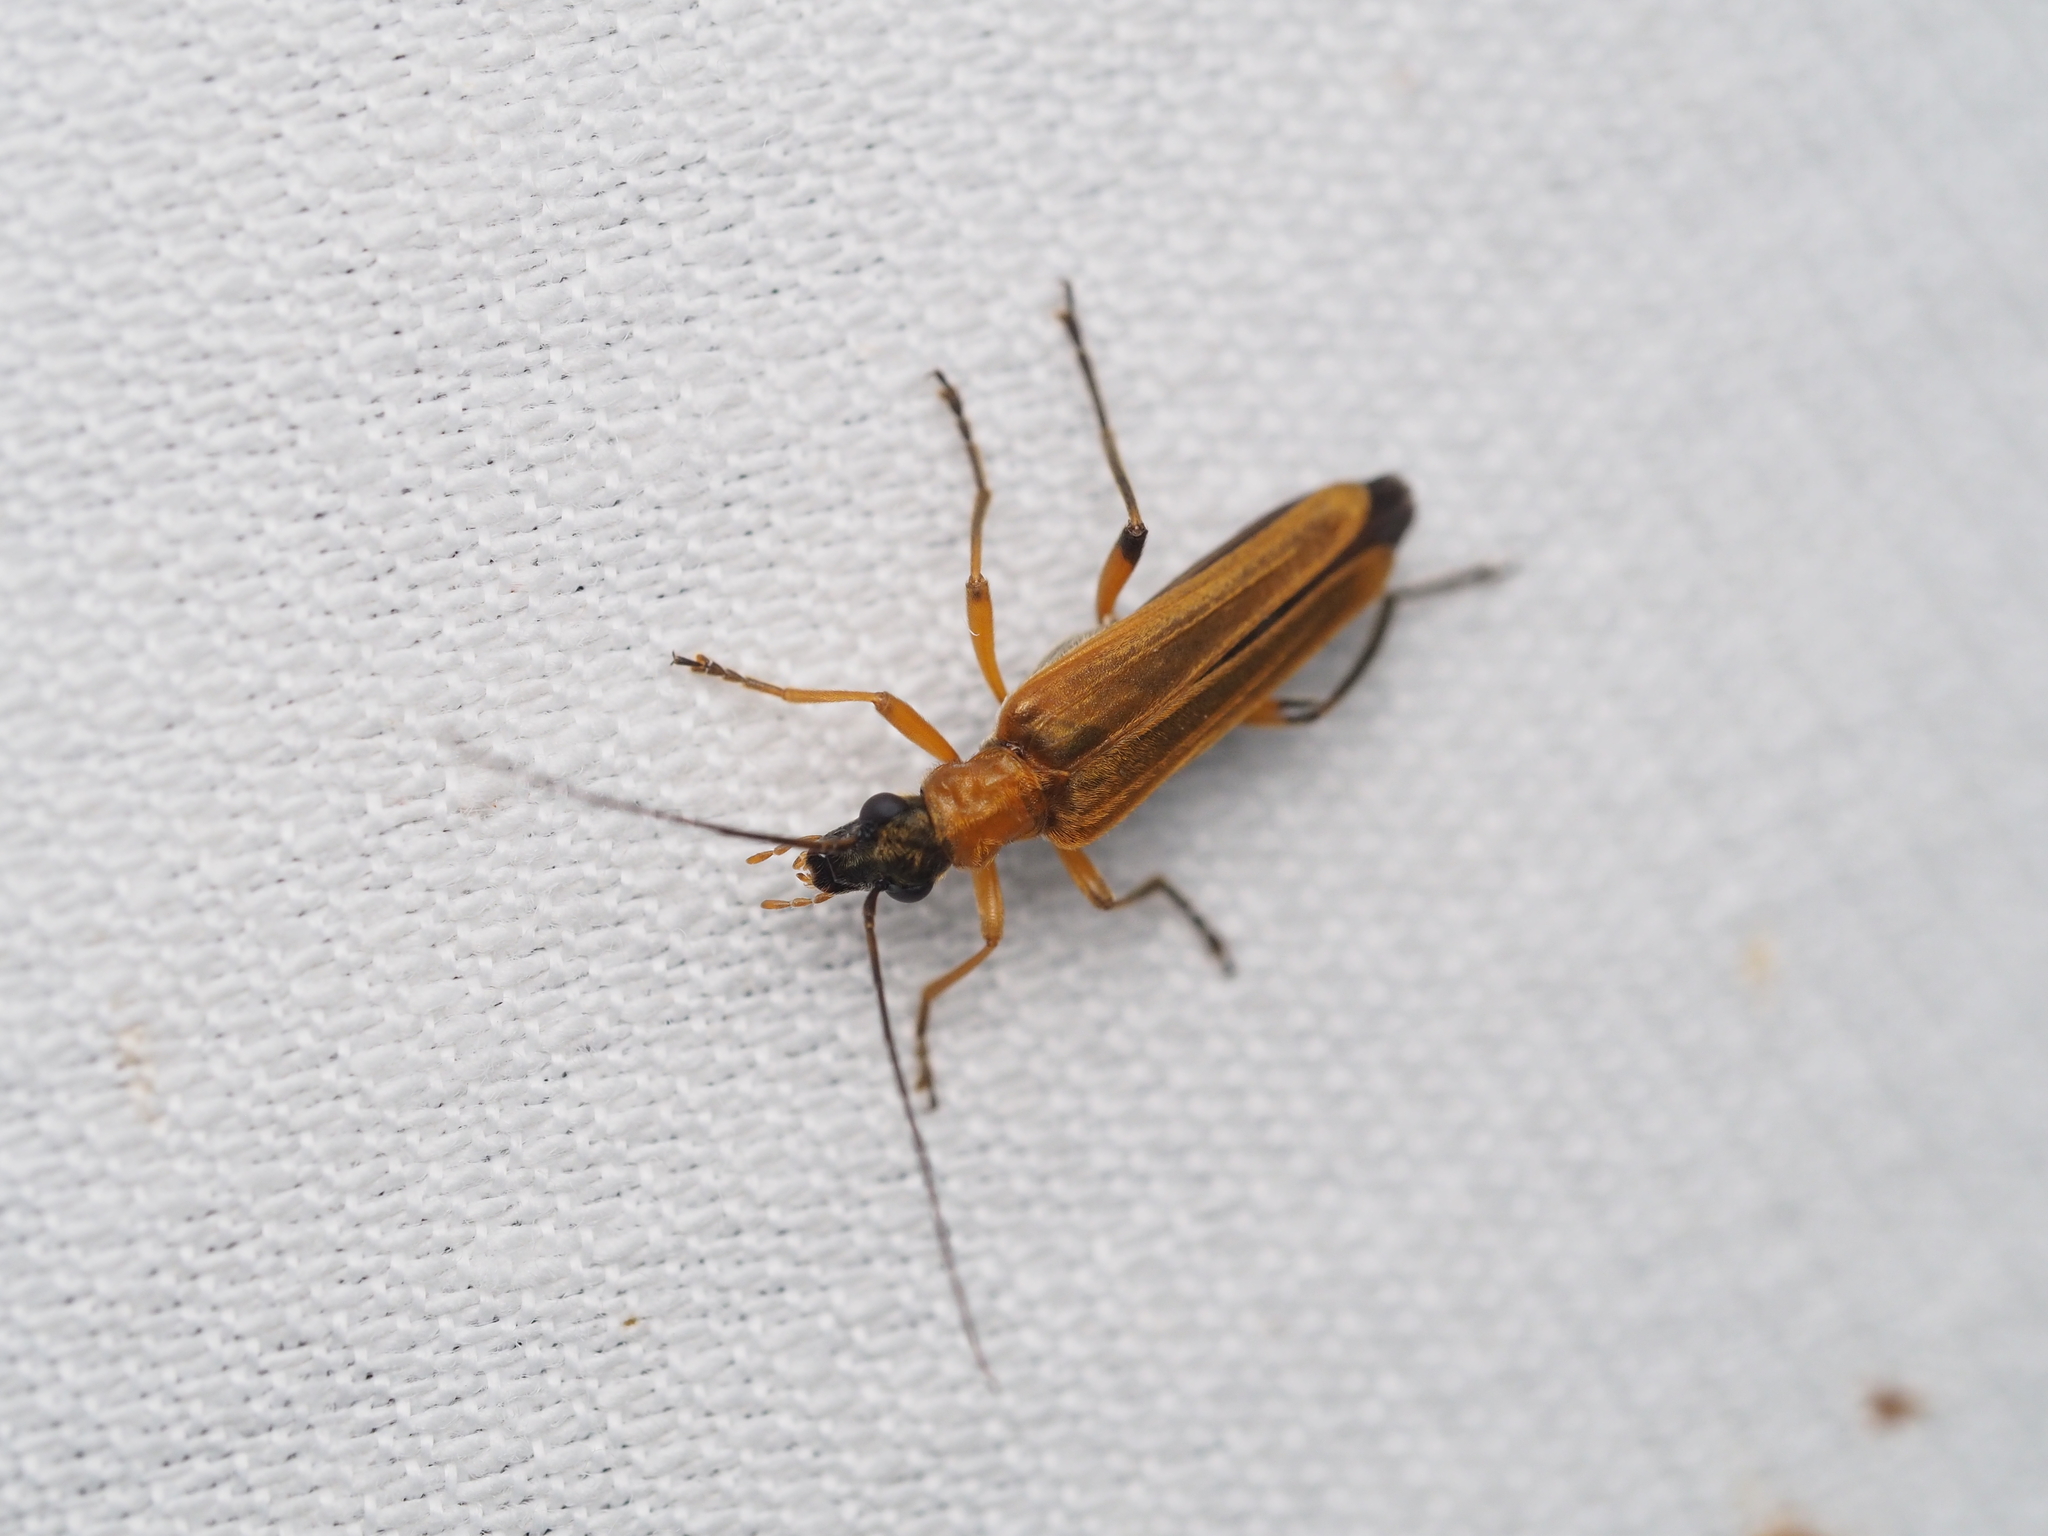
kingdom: Animalia
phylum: Arthropoda
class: Insecta
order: Coleoptera
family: Oedemeridae
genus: Oedemera
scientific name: Oedemera podagrariae
